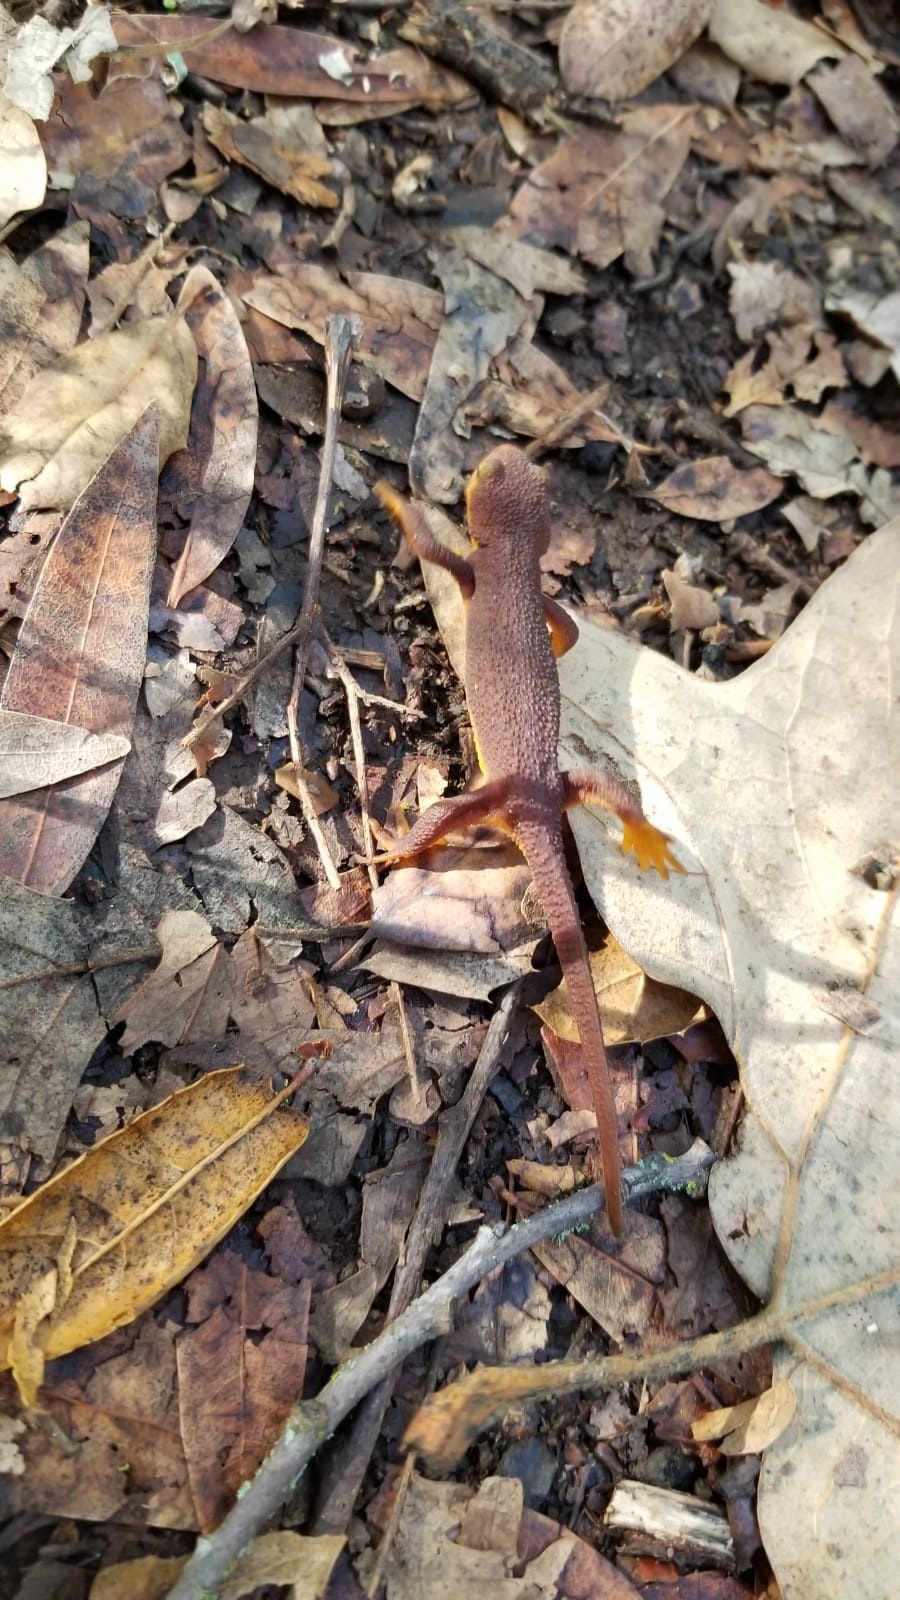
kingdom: Animalia
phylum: Chordata
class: Amphibia
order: Caudata
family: Salamandridae
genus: Taricha
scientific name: Taricha torosa
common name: California newt
